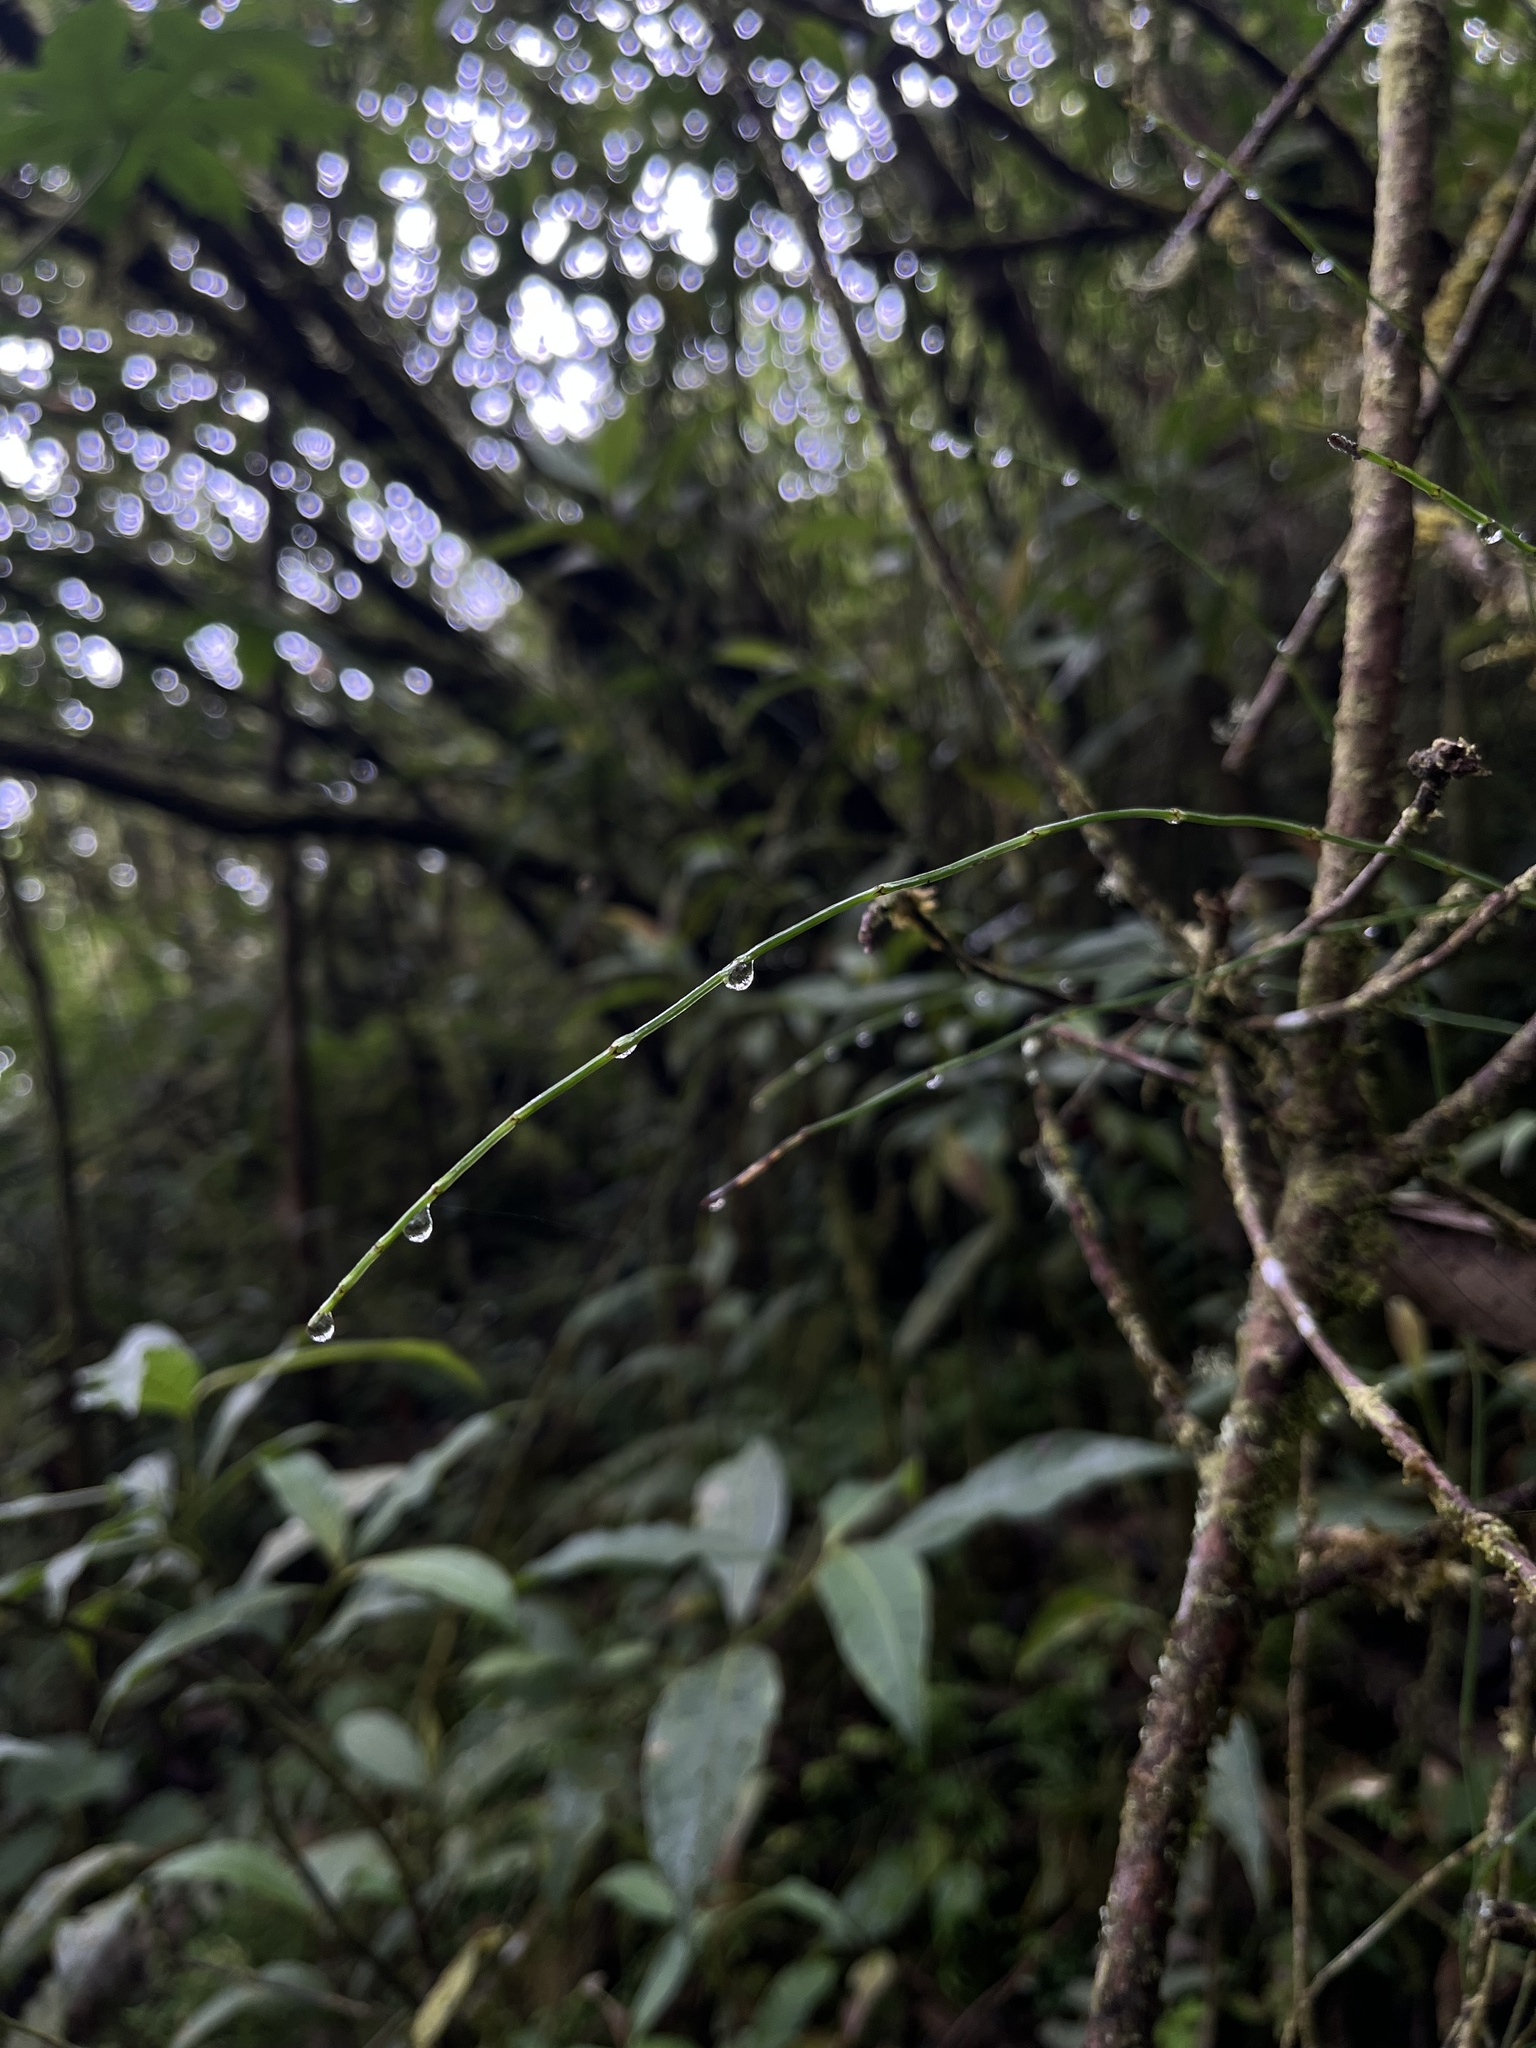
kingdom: Plantae
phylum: Tracheophyta
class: Polypodiopsida
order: Equisetales
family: Equisetaceae
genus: Equisetum
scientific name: Equisetum bogotense
